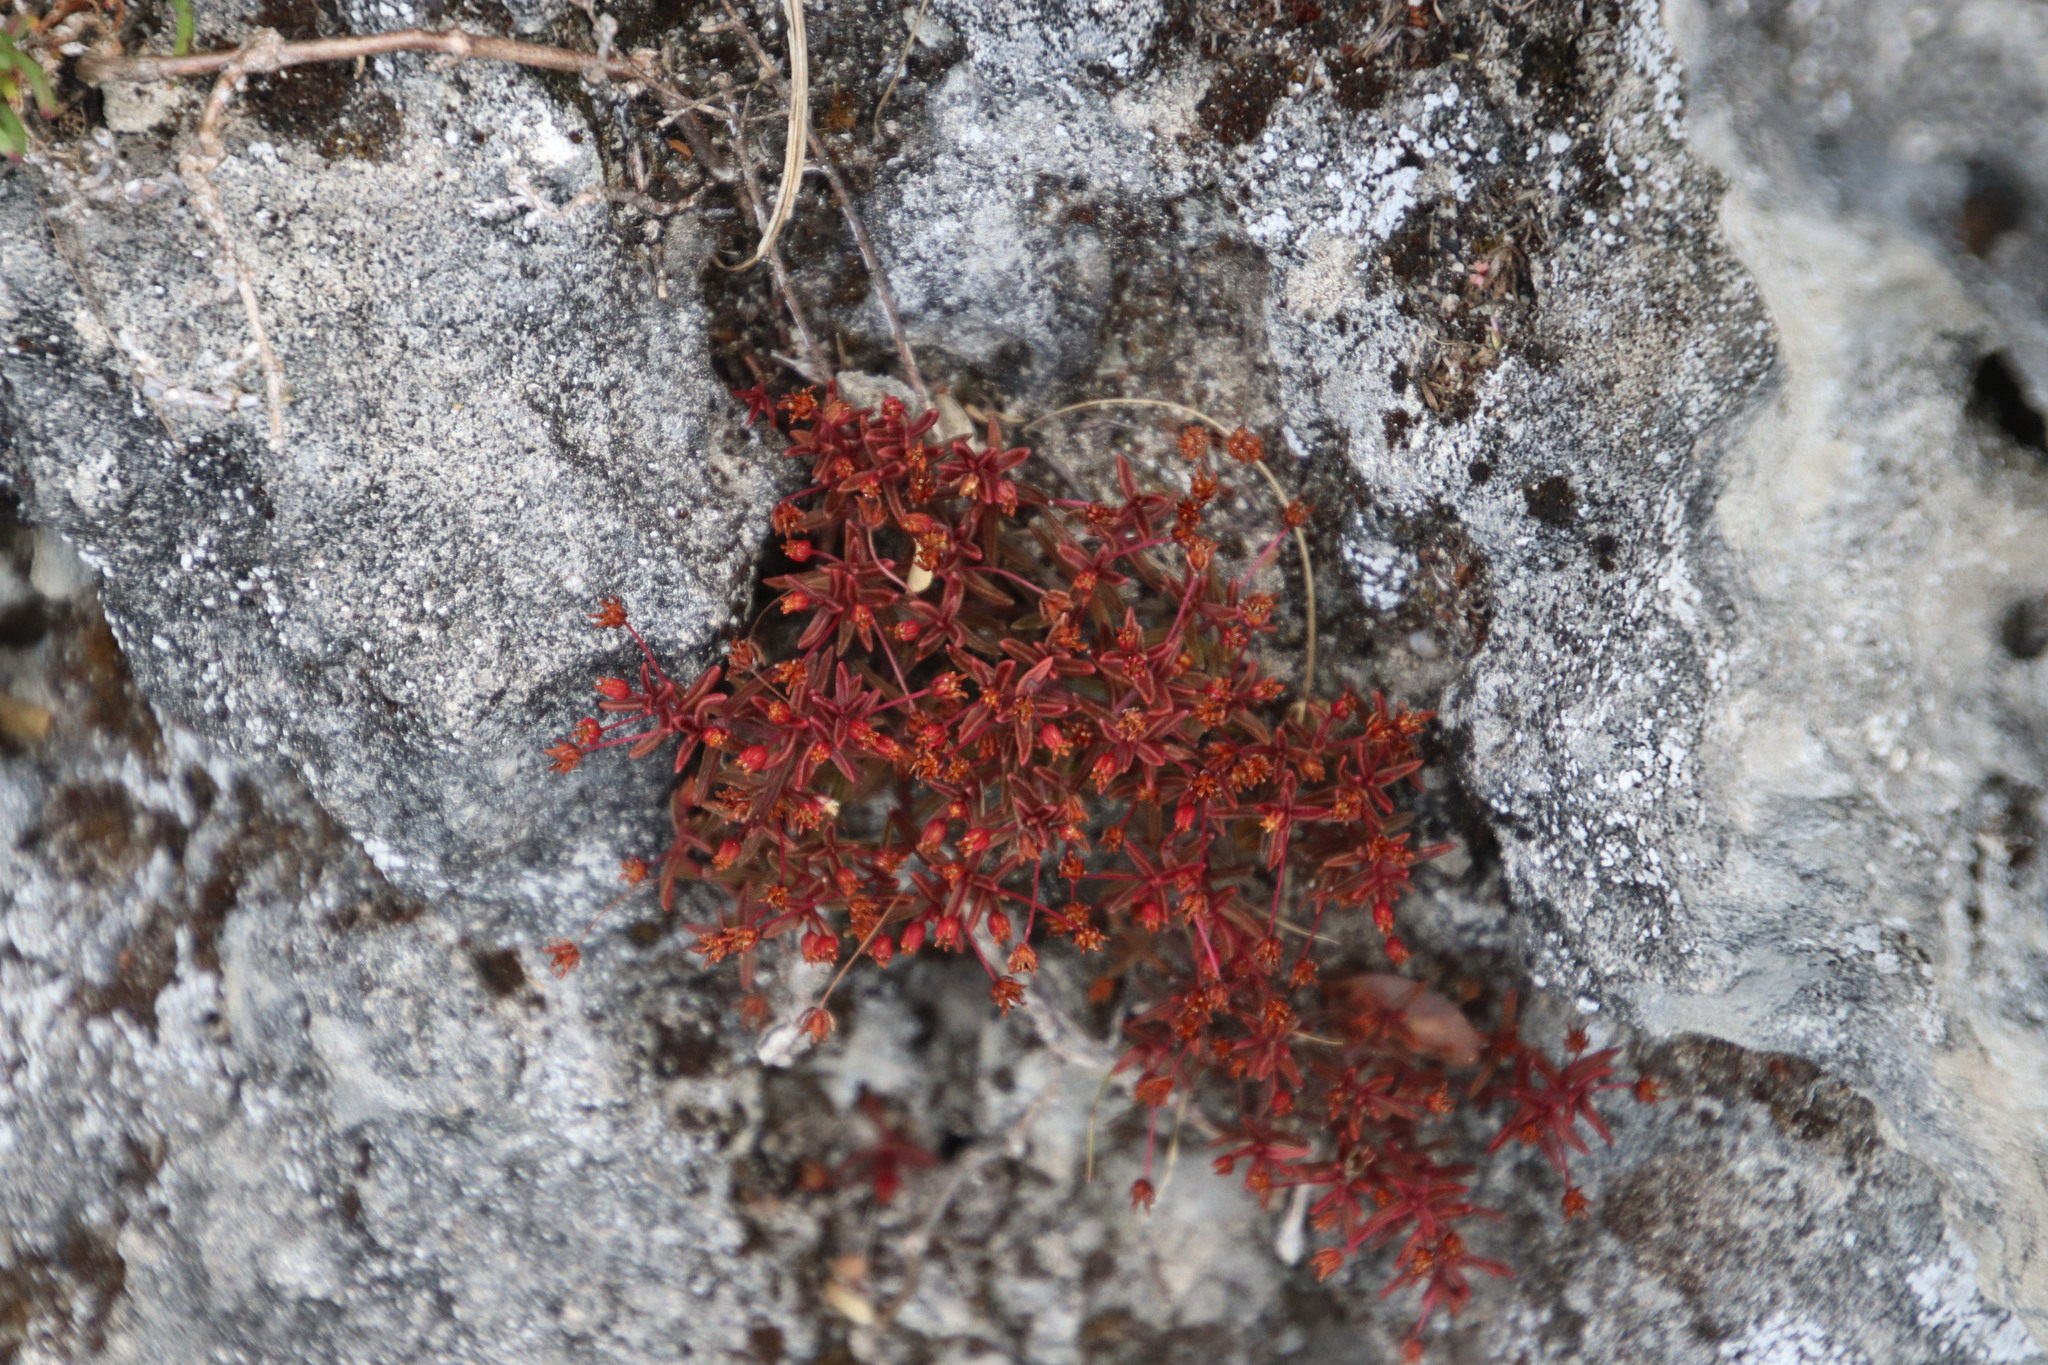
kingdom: Plantae
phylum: Tracheophyta
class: Magnoliopsida
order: Saxifragales
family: Crassulaceae
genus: Crassula
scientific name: Crassula expansa
